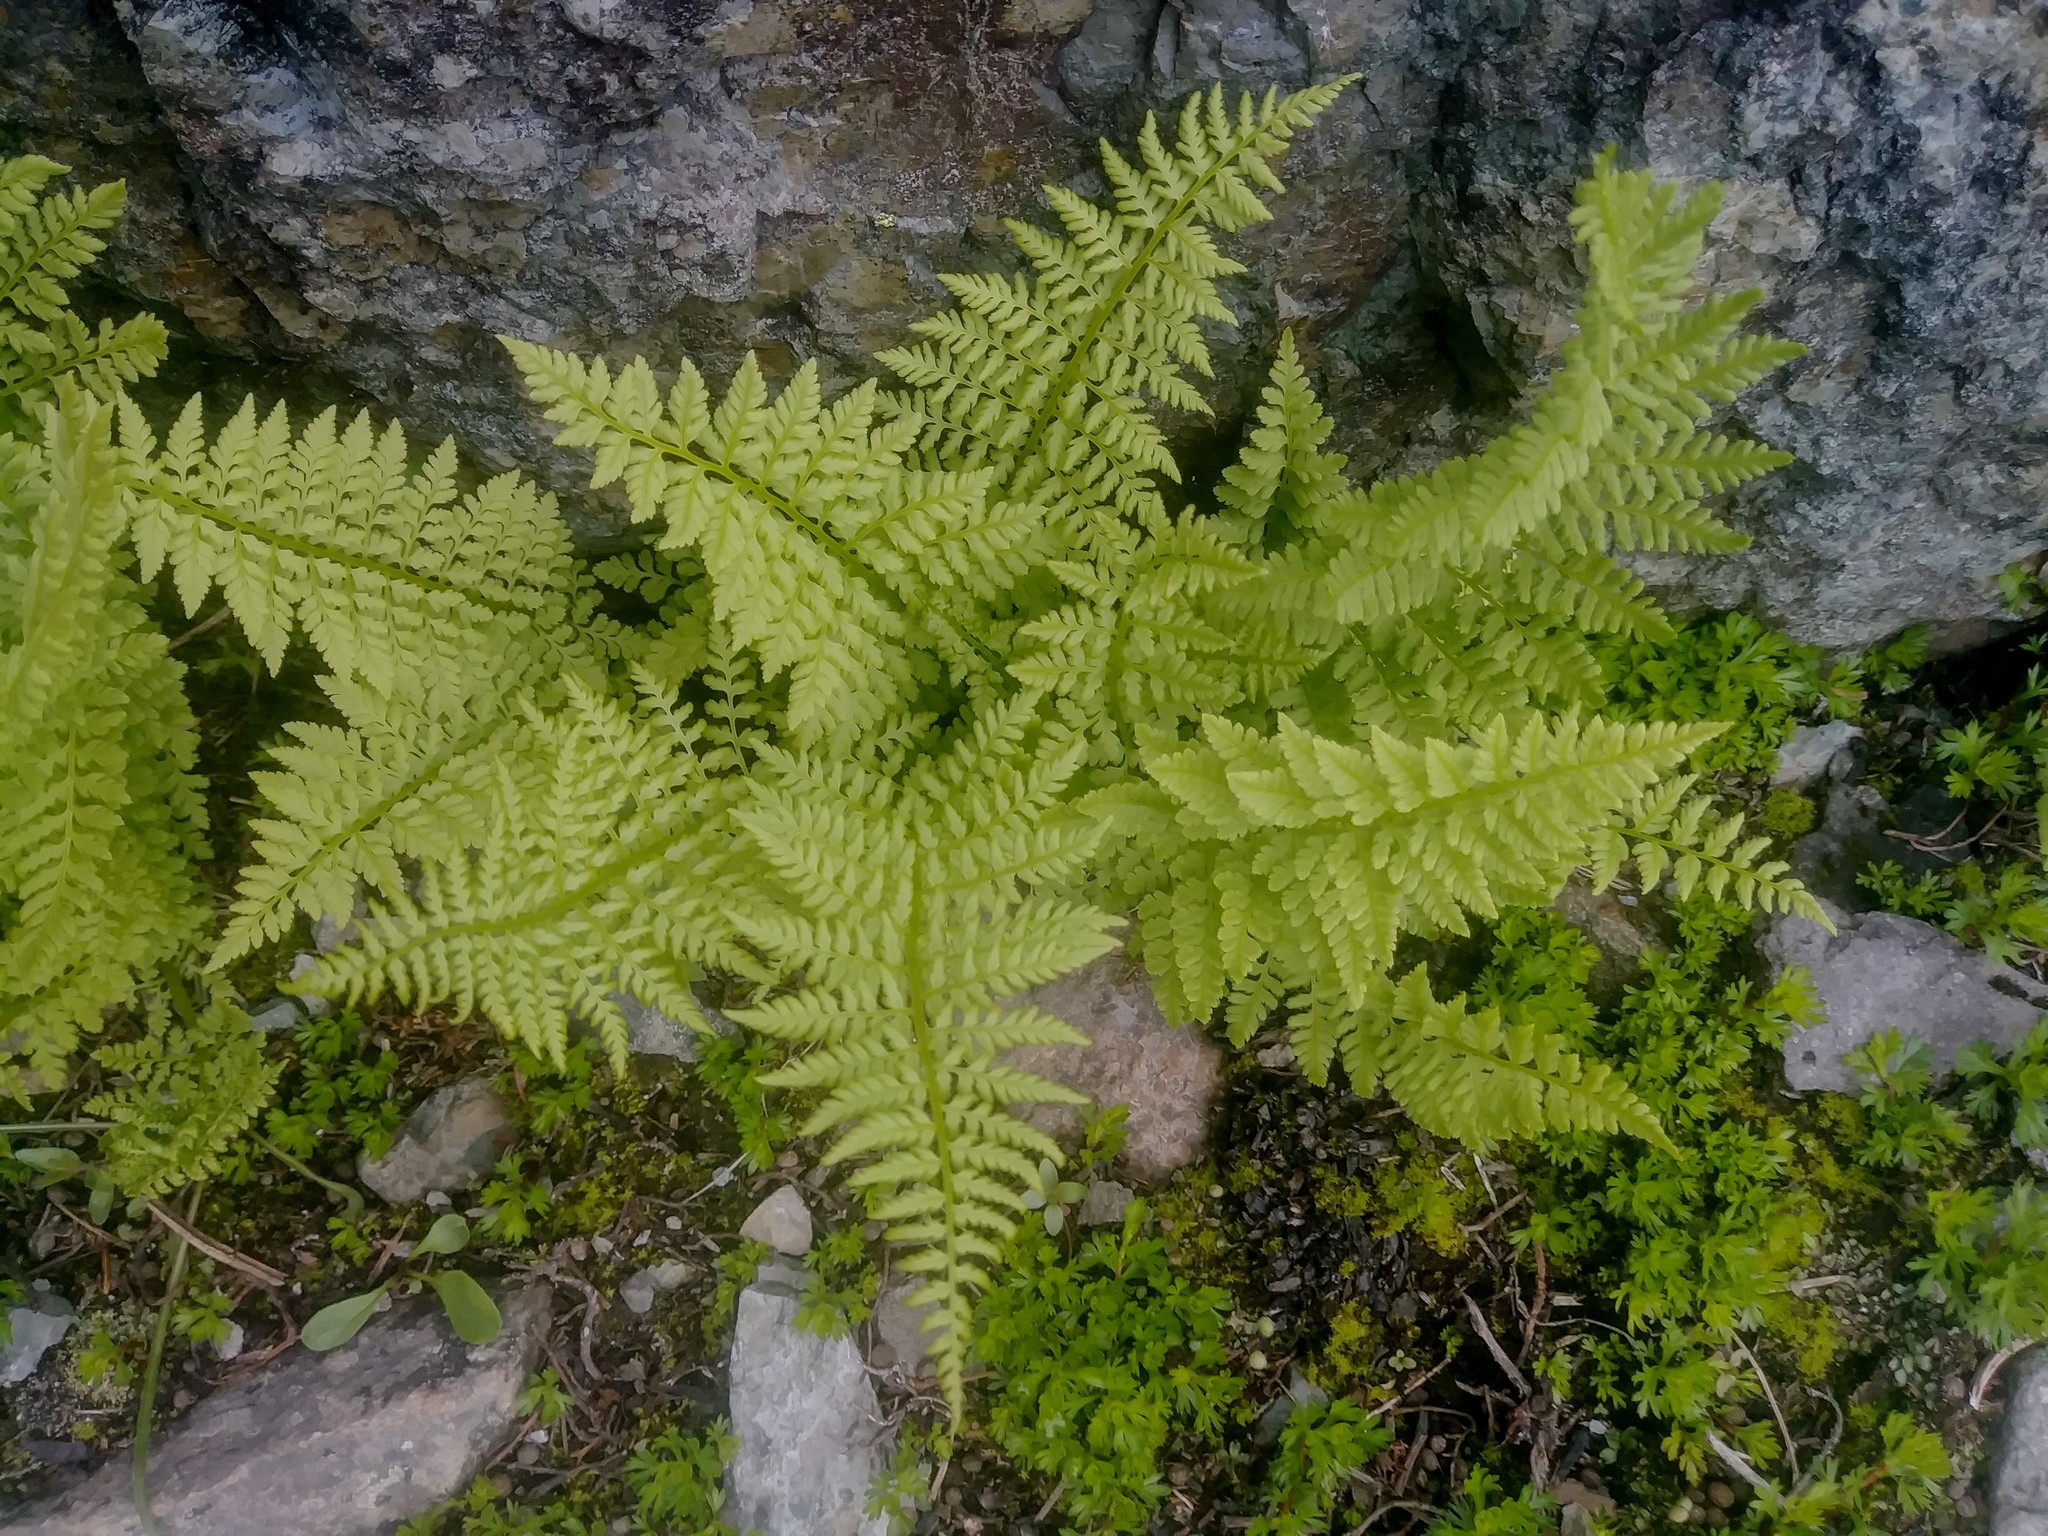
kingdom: Plantae
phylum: Tracheophyta
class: Polypodiopsida
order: Polypodiales
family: Athyriaceae
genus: Athyrium
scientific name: Athyrium americanum
